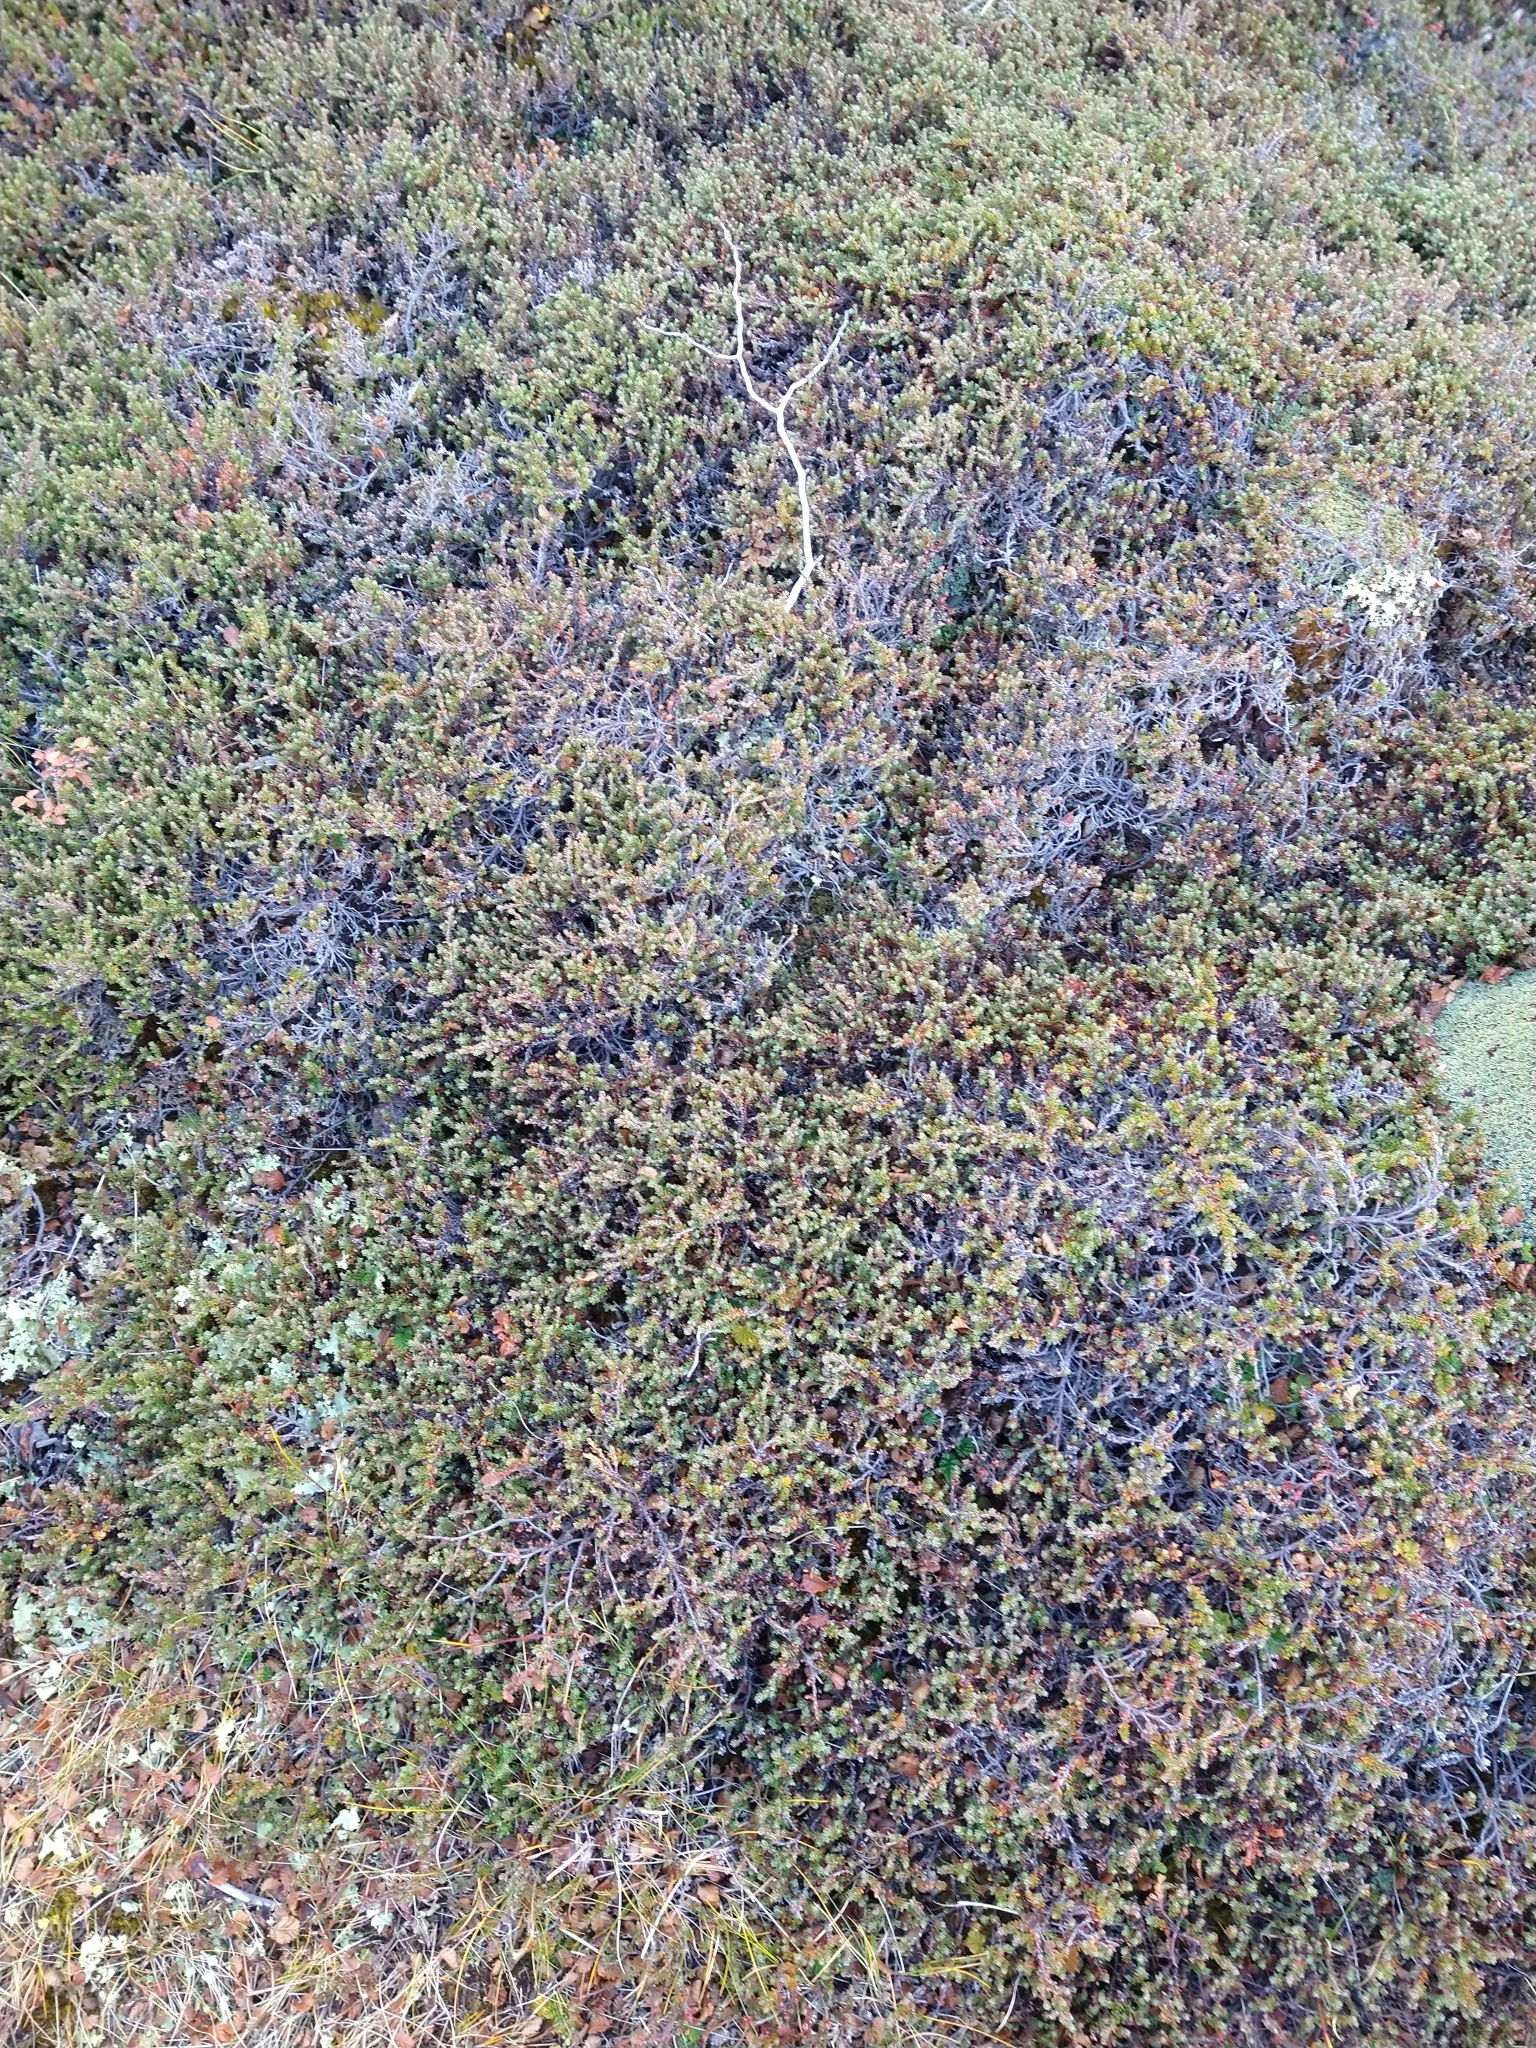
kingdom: Plantae
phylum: Tracheophyta
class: Magnoliopsida
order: Ericales
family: Ericaceae
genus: Empetrum
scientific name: Empetrum rubrum
